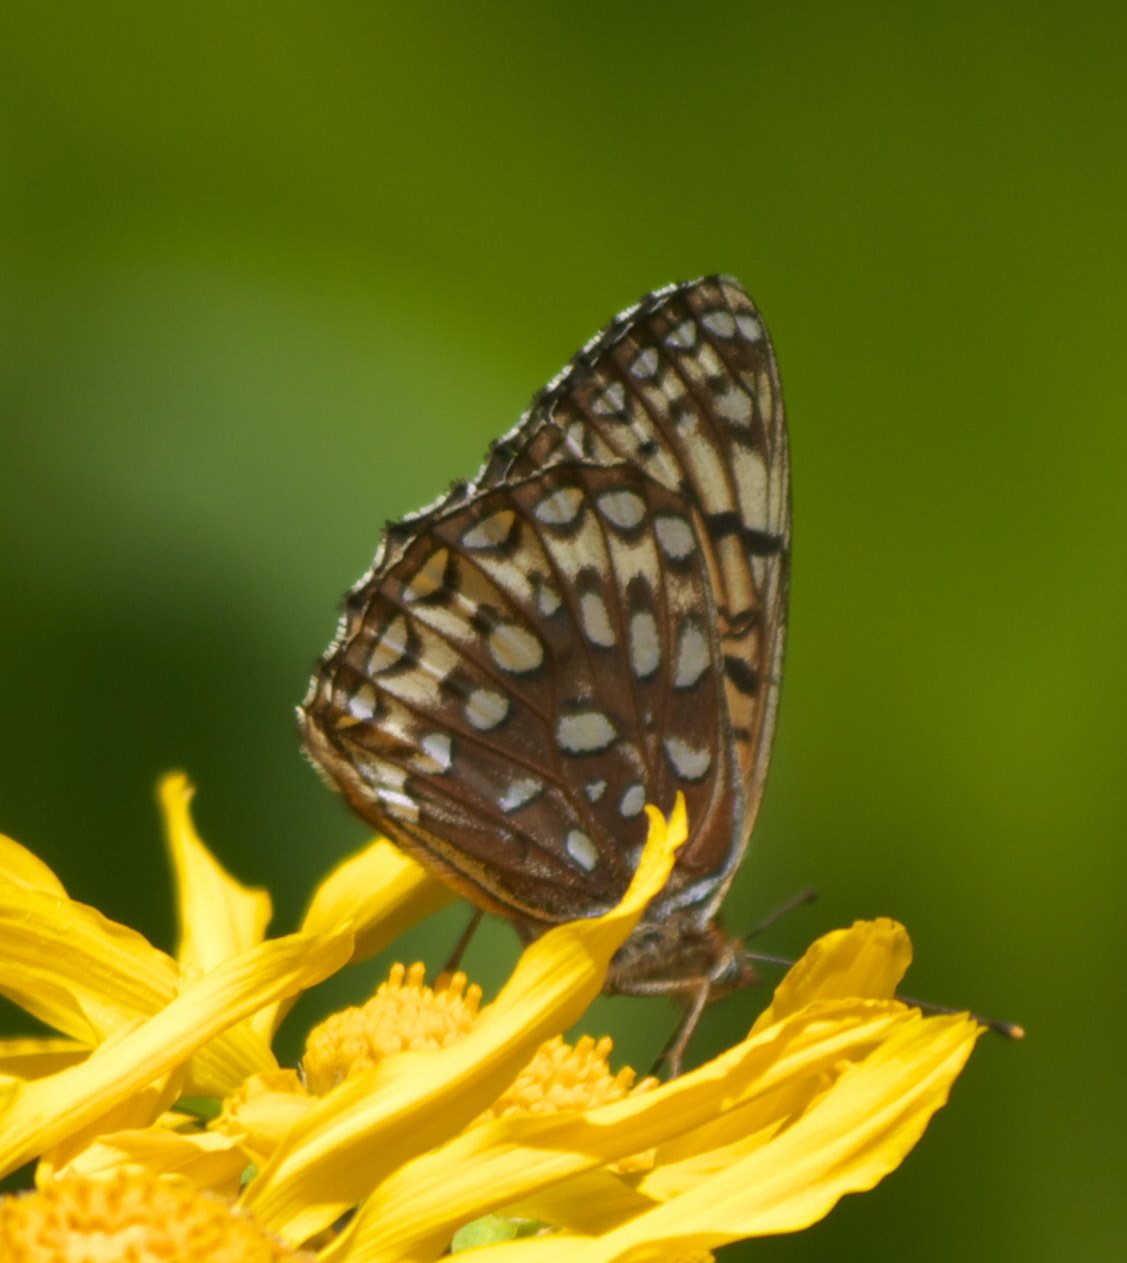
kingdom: Animalia
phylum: Arthropoda
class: Insecta
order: Lepidoptera
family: Nymphalidae
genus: Speyeria
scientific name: Speyeria atlantis
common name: Atlantis fritillary
